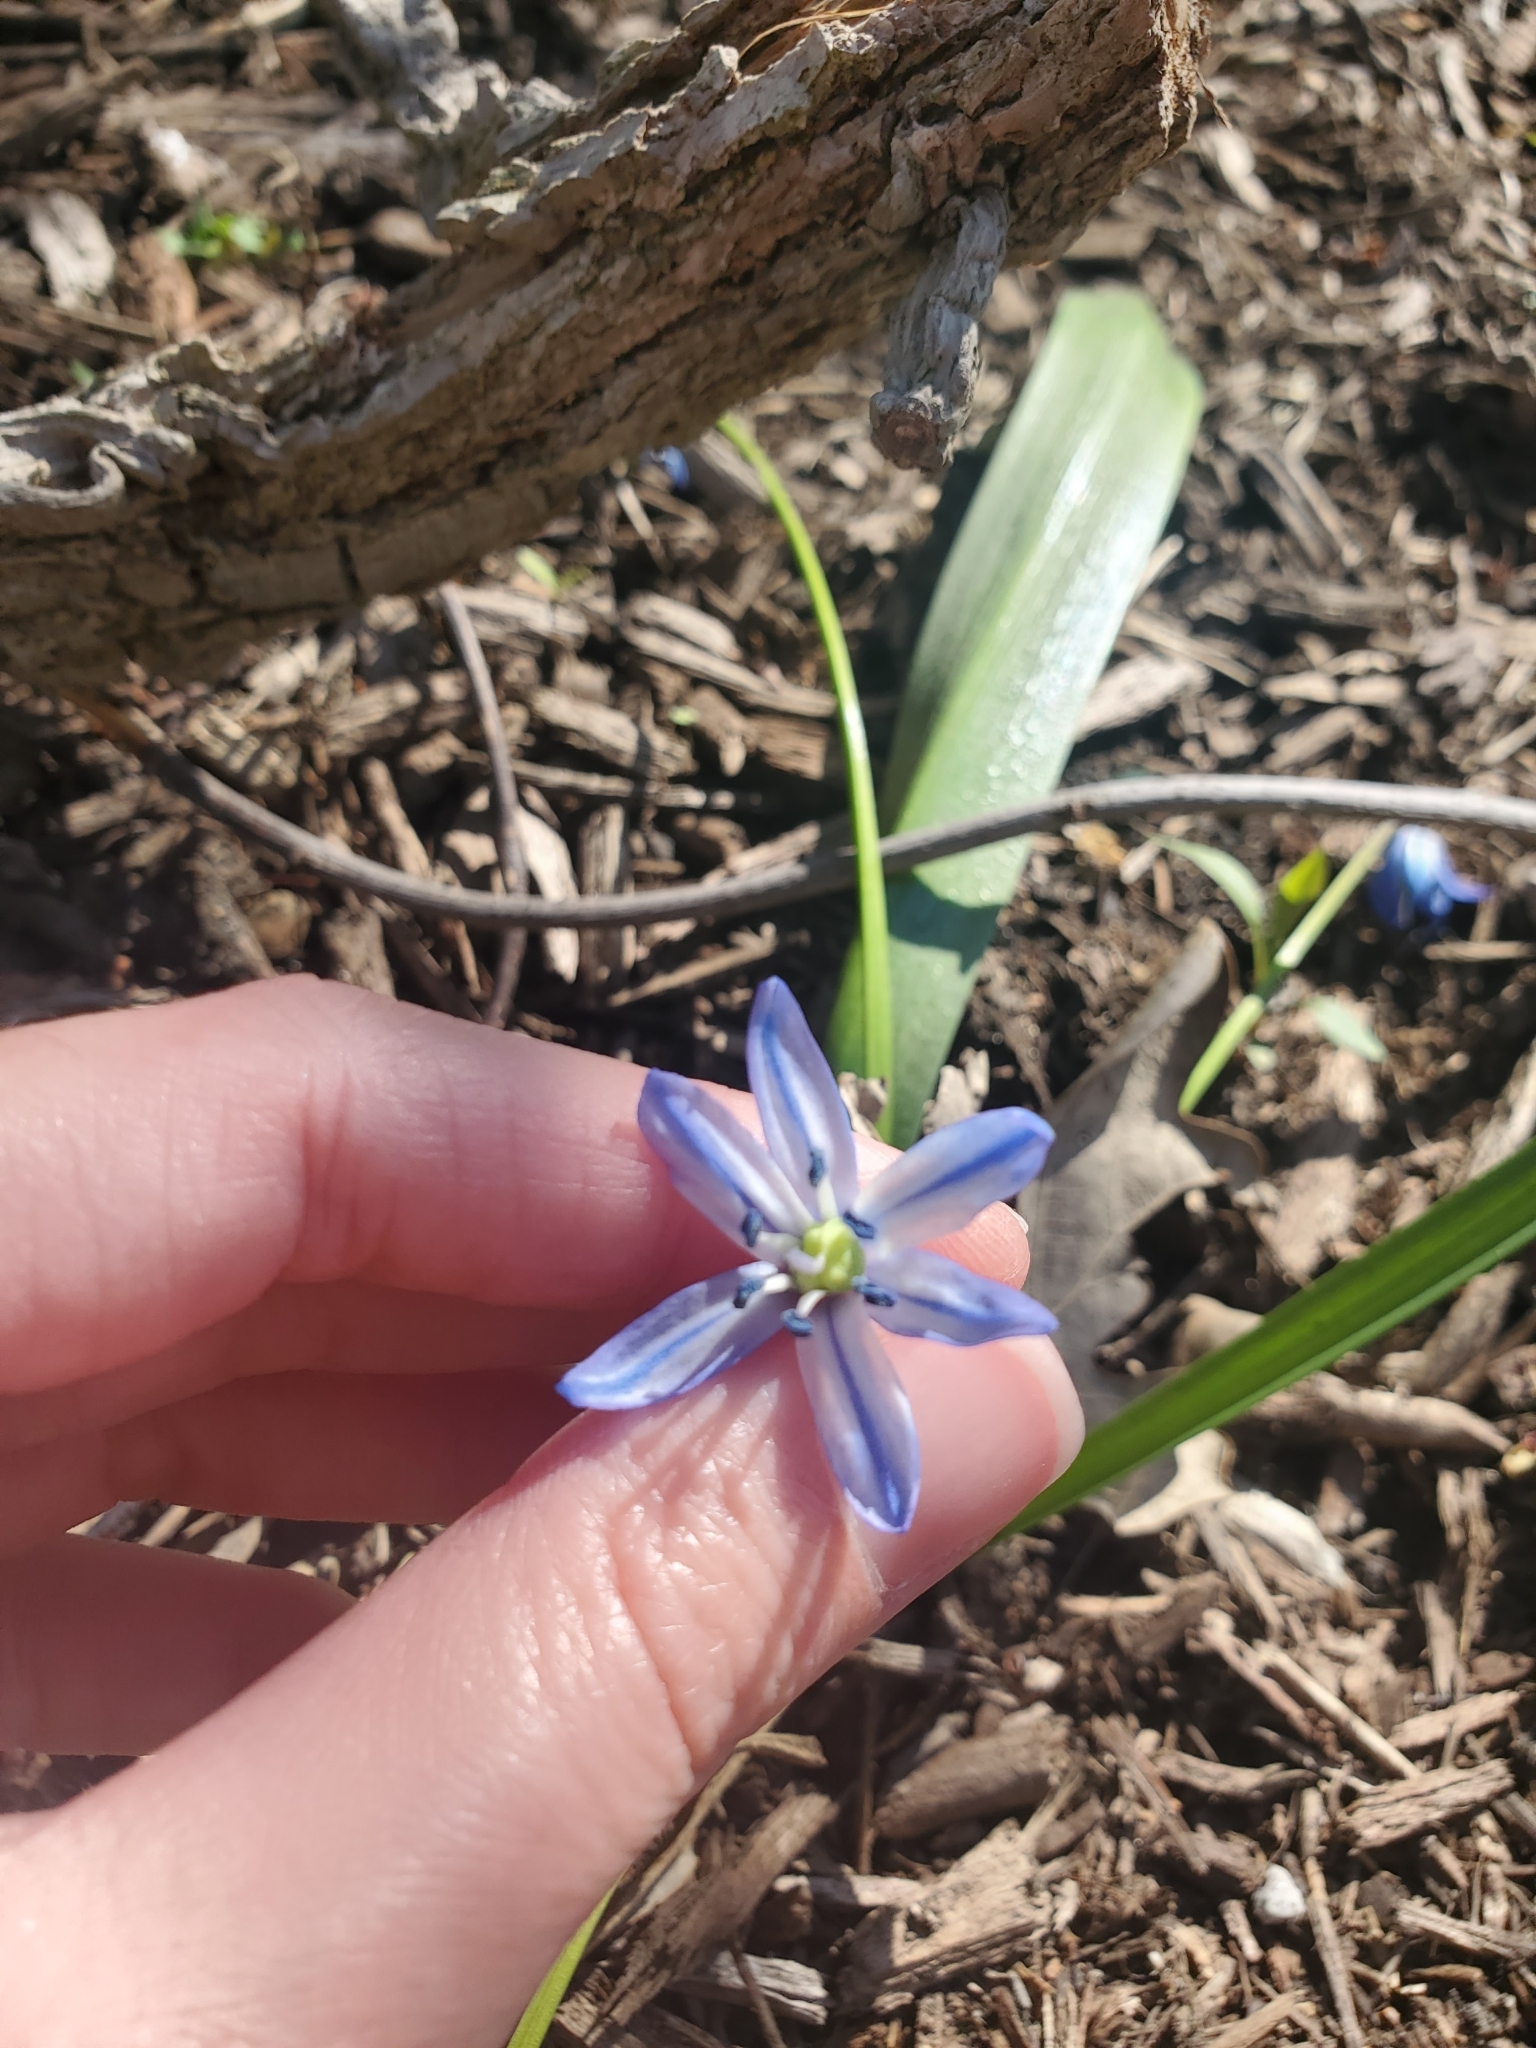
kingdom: Plantae
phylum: Tracheophyta
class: Liliopsida
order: Asparagales
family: Asparagaceae
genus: Scilla
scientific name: Scilla siberica
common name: Siberian squill
